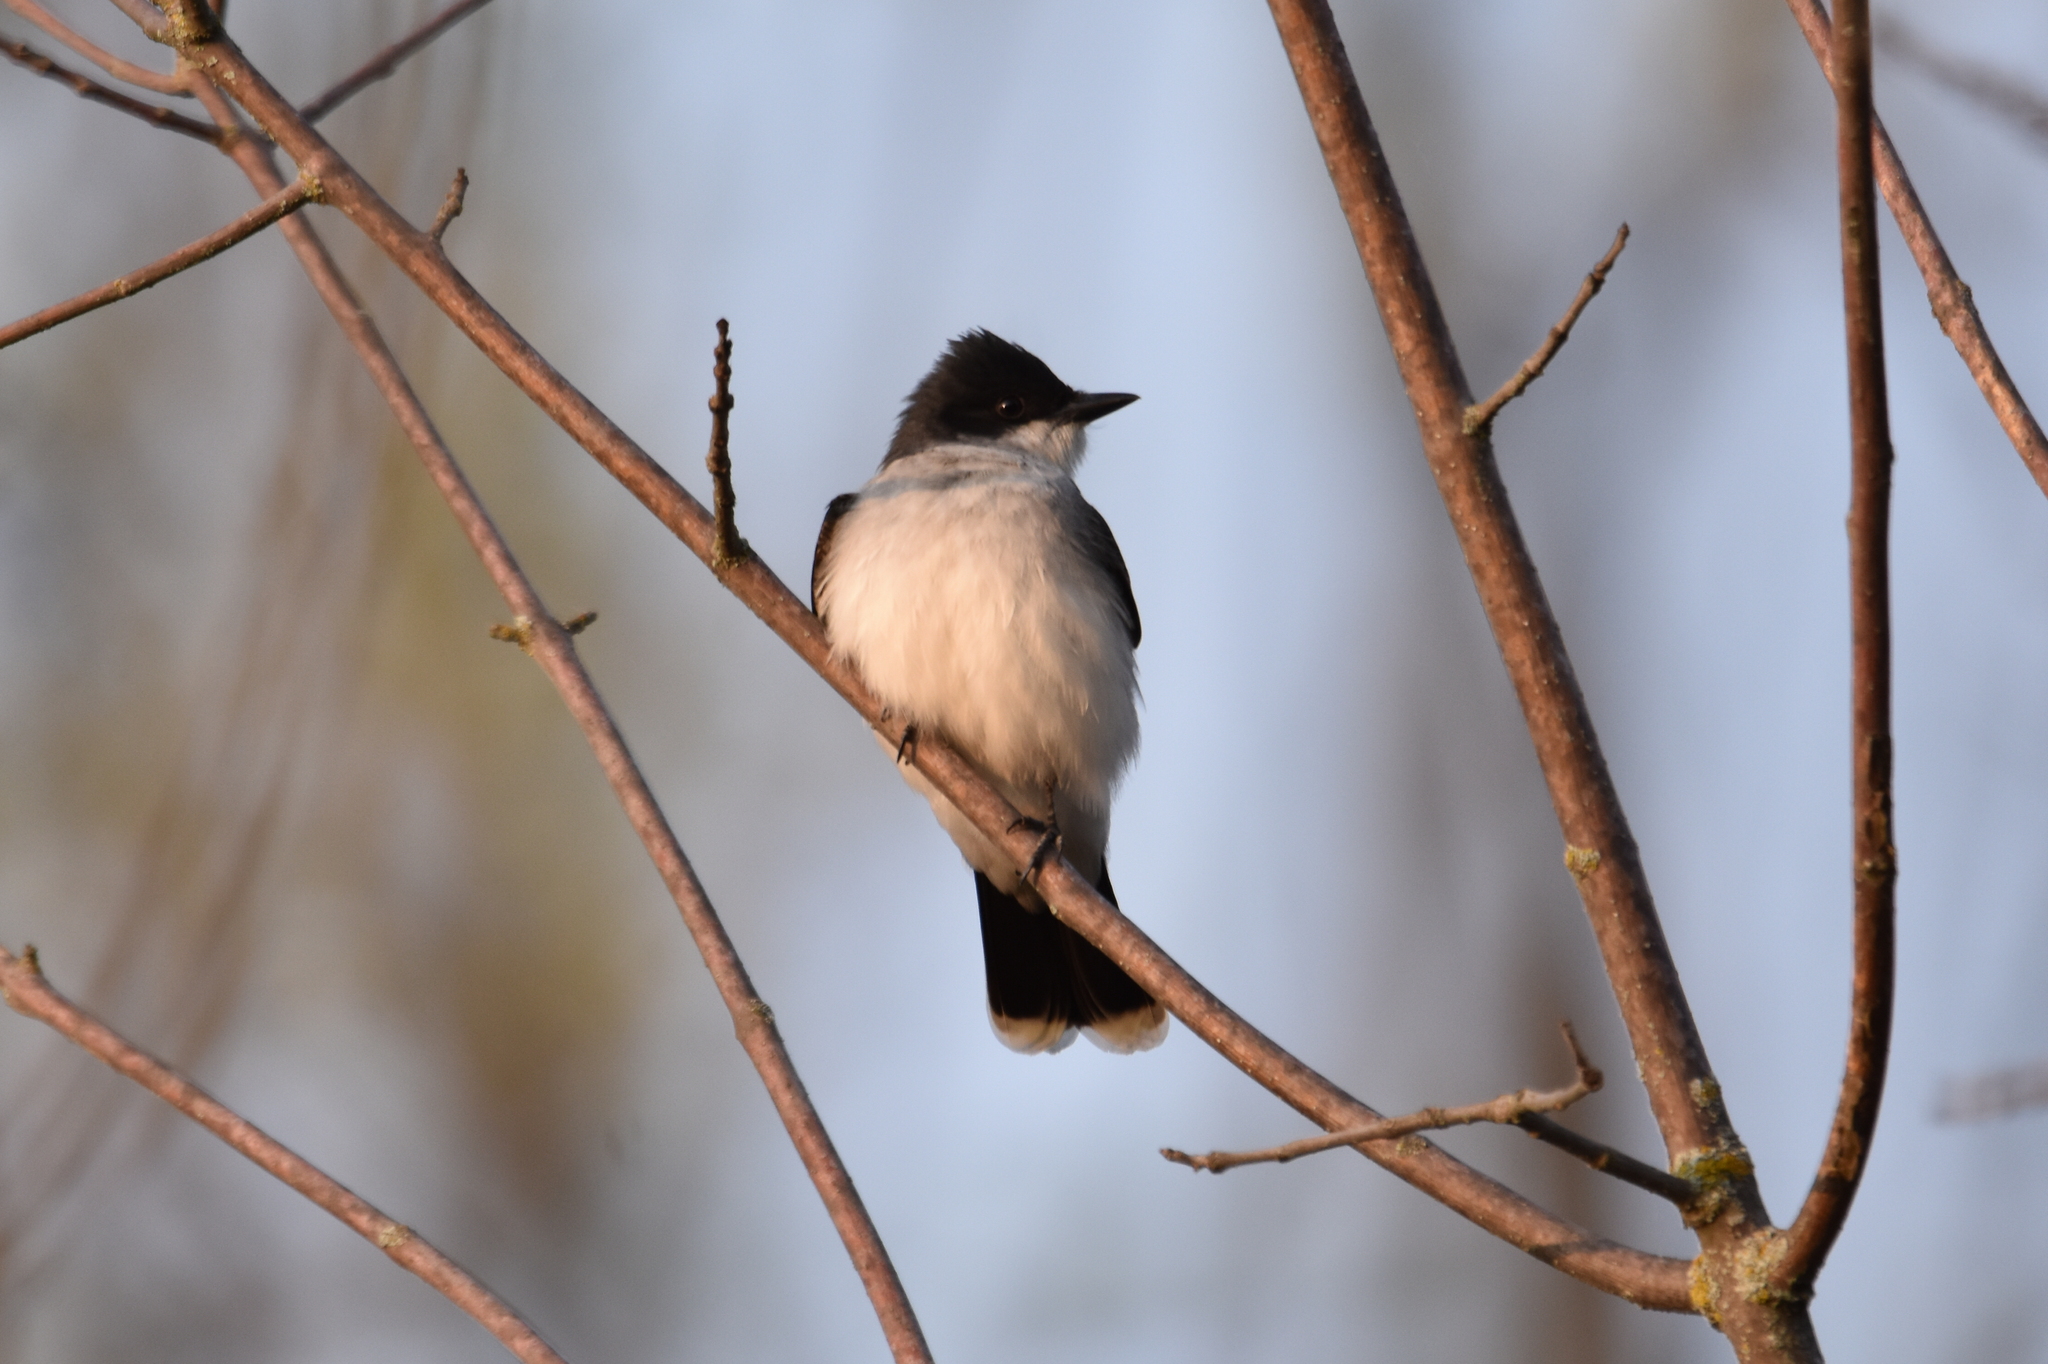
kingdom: Animalia
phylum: Chordata
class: Aves
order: Passeriformes
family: Tyrannidae
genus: Tyrannus
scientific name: Tyrannus tyrannus
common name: Eastern kingbird
